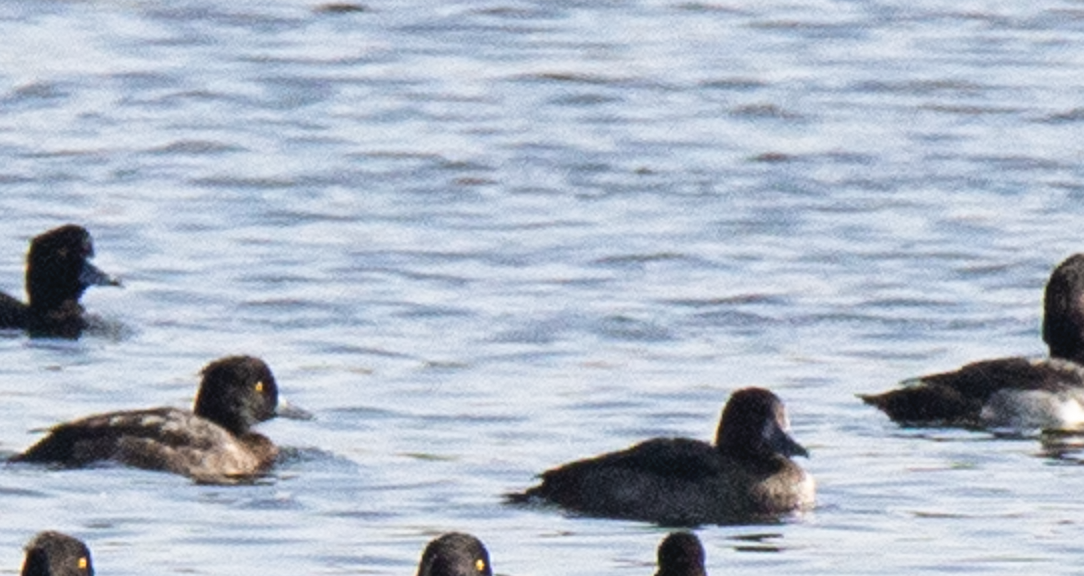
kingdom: Animalia
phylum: Chordata
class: Aves
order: Anseriformes
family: Anatidae
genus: Aythya
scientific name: Aythya fuligula
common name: Tufted duck
